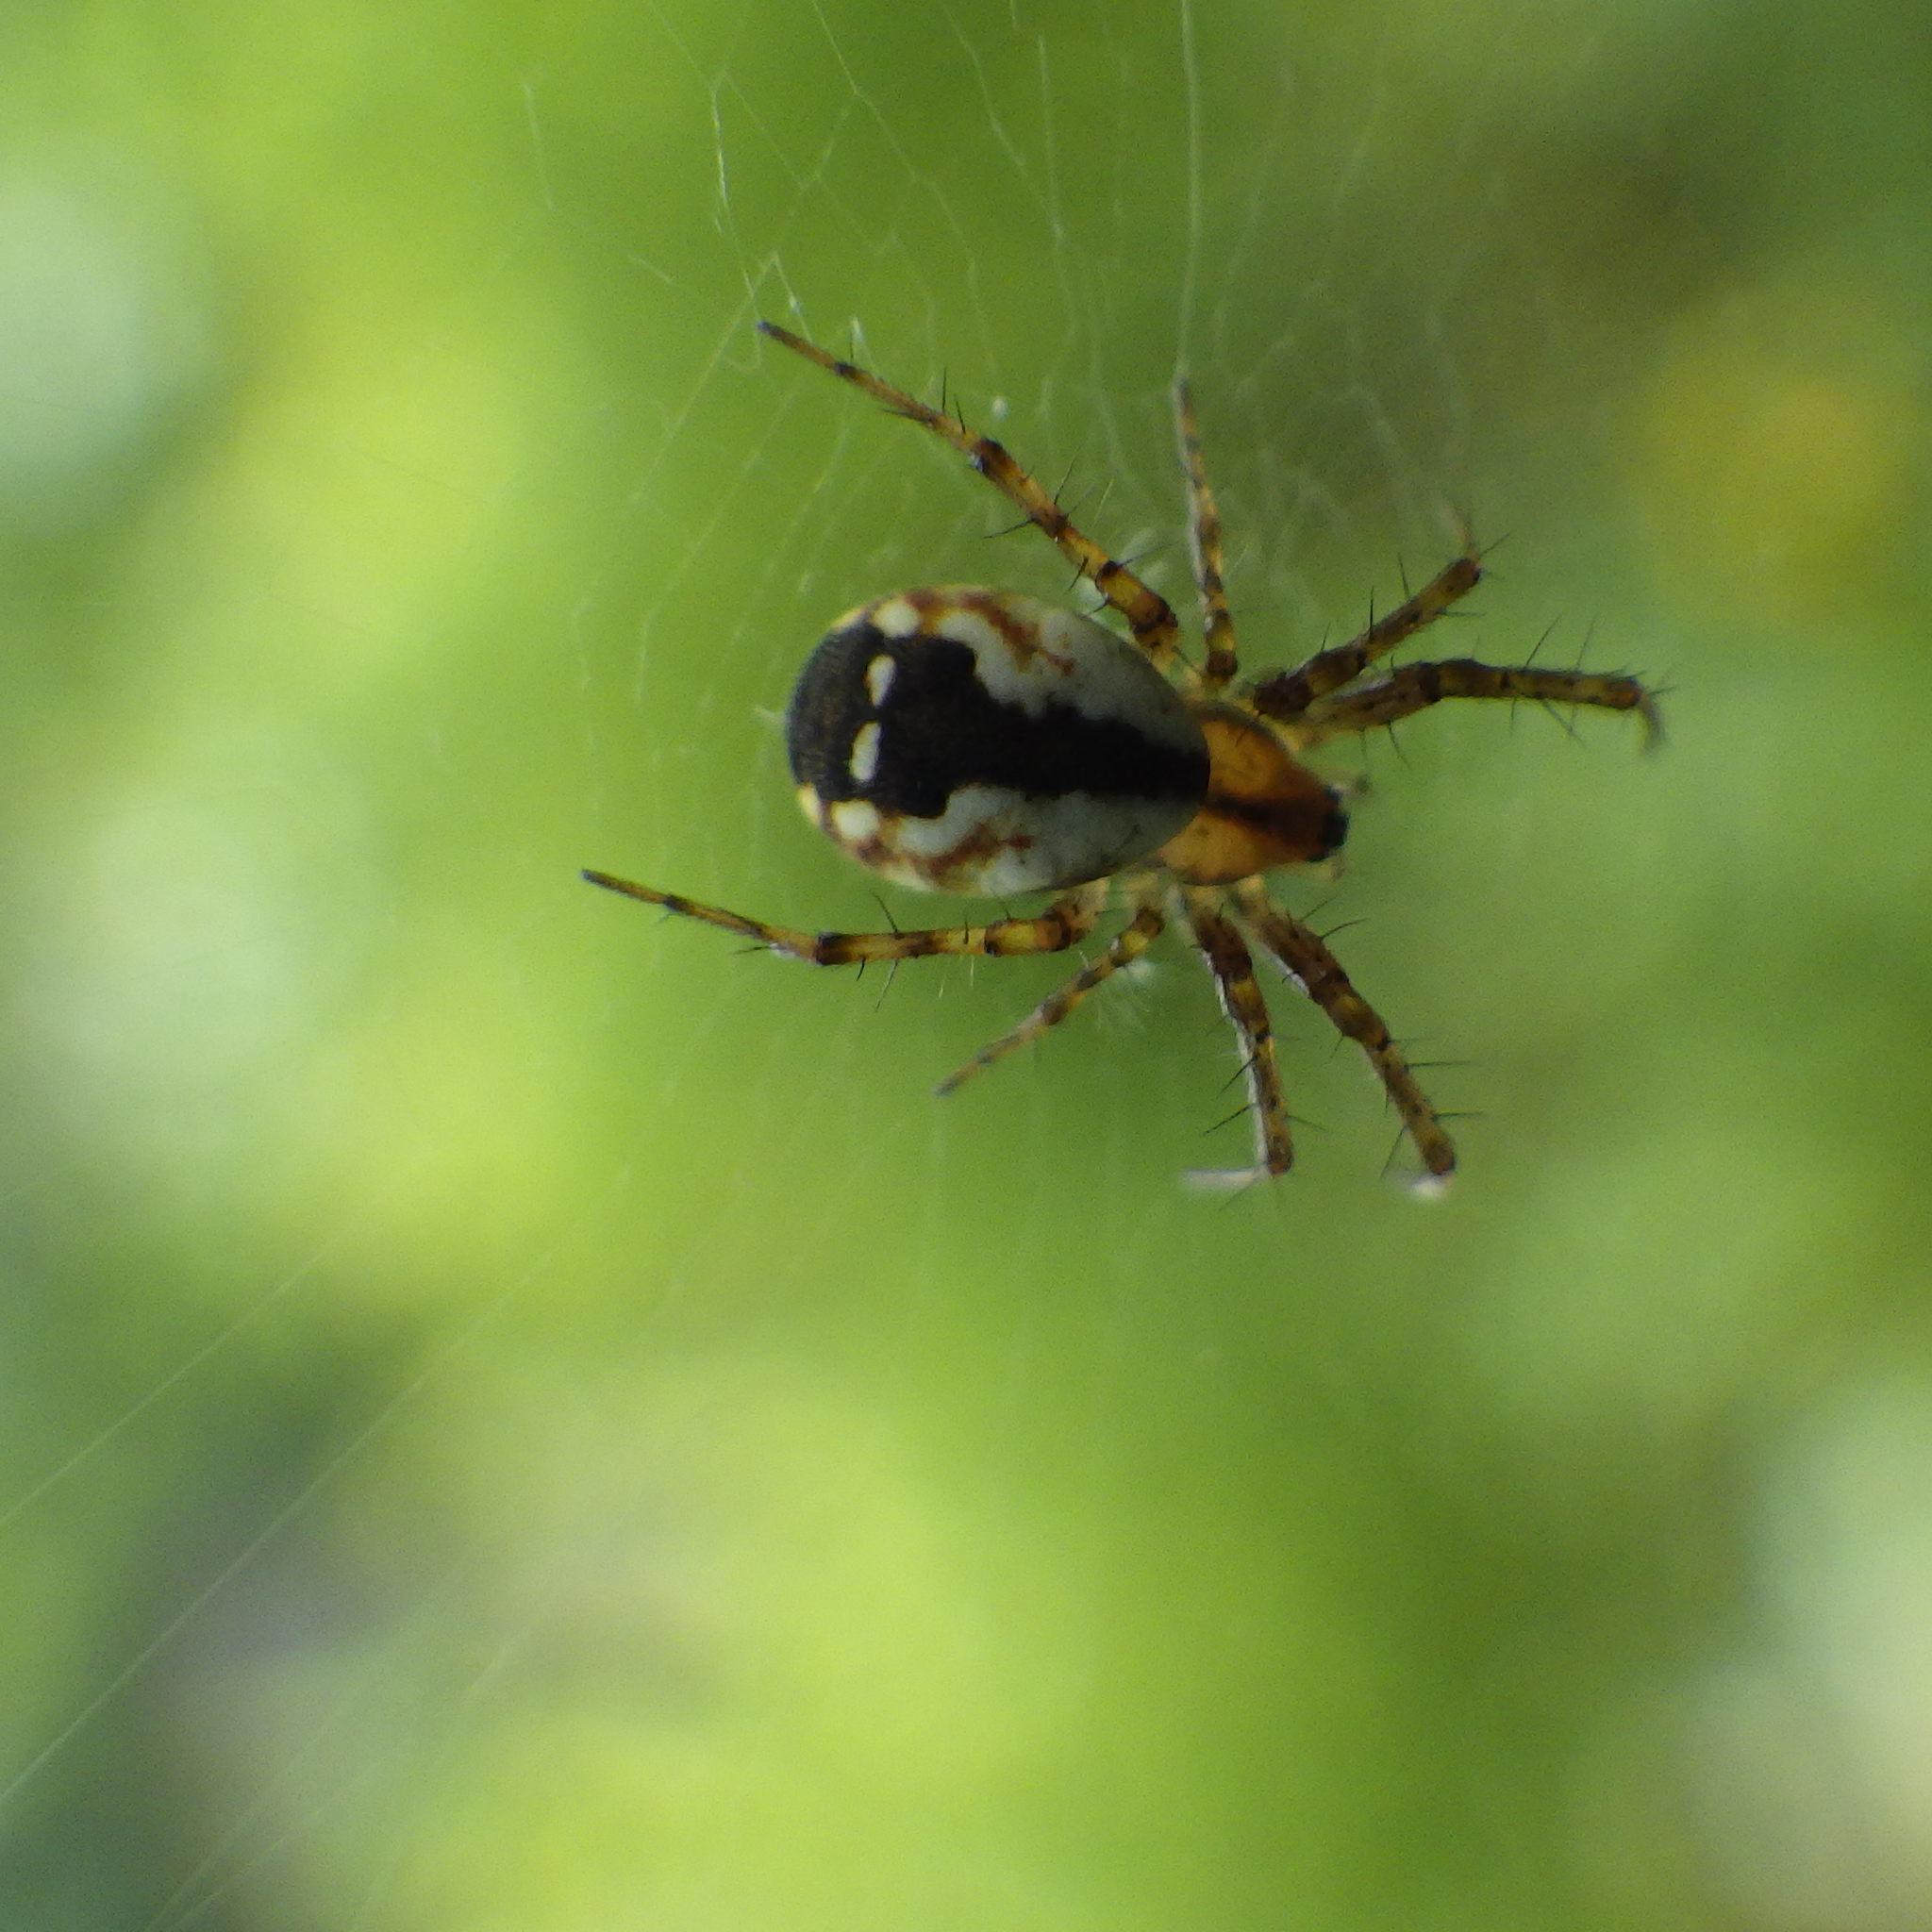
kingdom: Animalia
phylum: Arthropoda
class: Arachnida
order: Araneae
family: Araneidae
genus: Mangora
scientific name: Mangora placida
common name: Tuft-legged orbweaver
